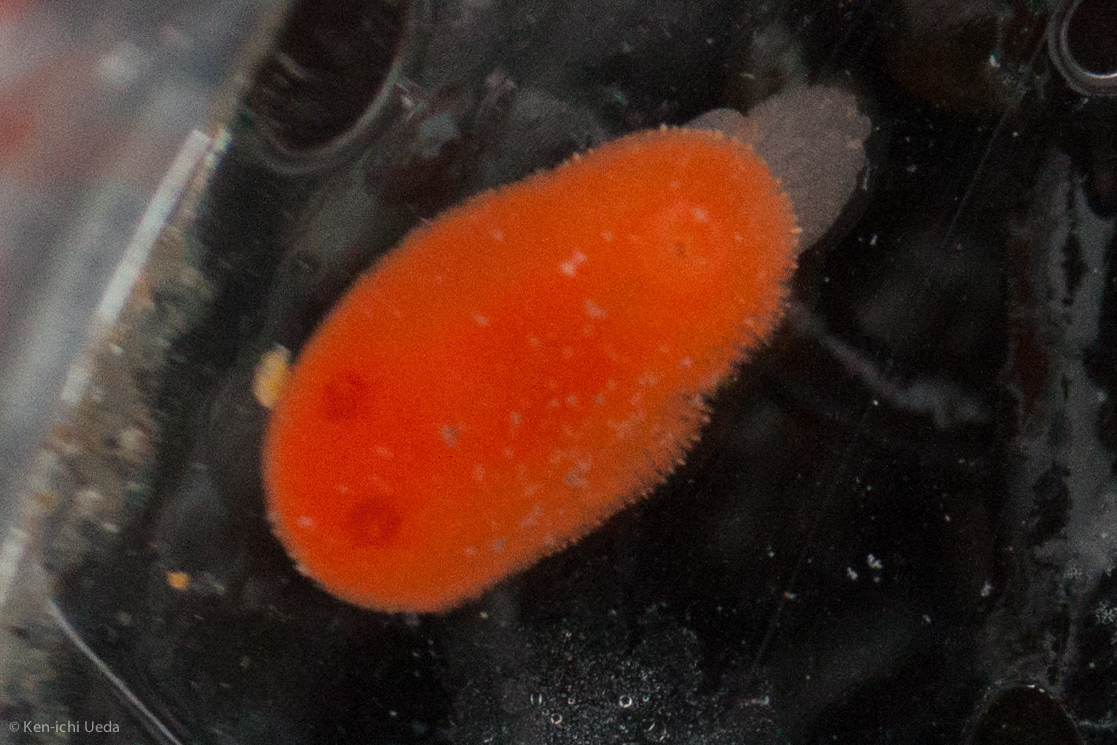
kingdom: Animalia
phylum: Mollusca
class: Gastropoda
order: Nudibranchia
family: Discodorididae
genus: Rostanga
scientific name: Rostanga pulchra
